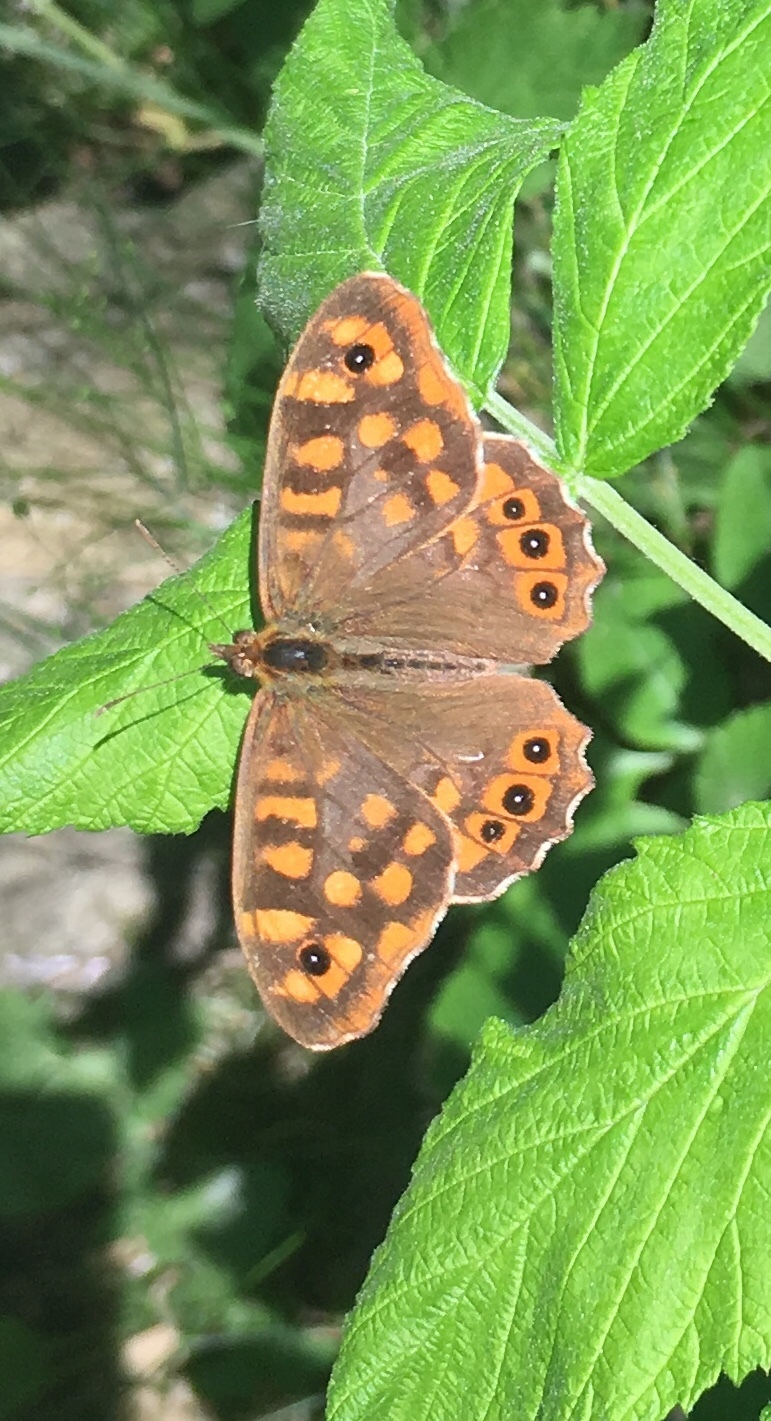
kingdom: Animalia
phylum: Arthropoda
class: Insecta
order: Lepidoptera
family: Nymphalidae
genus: Pararge
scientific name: Pararge aegeria
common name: Speckled wood
